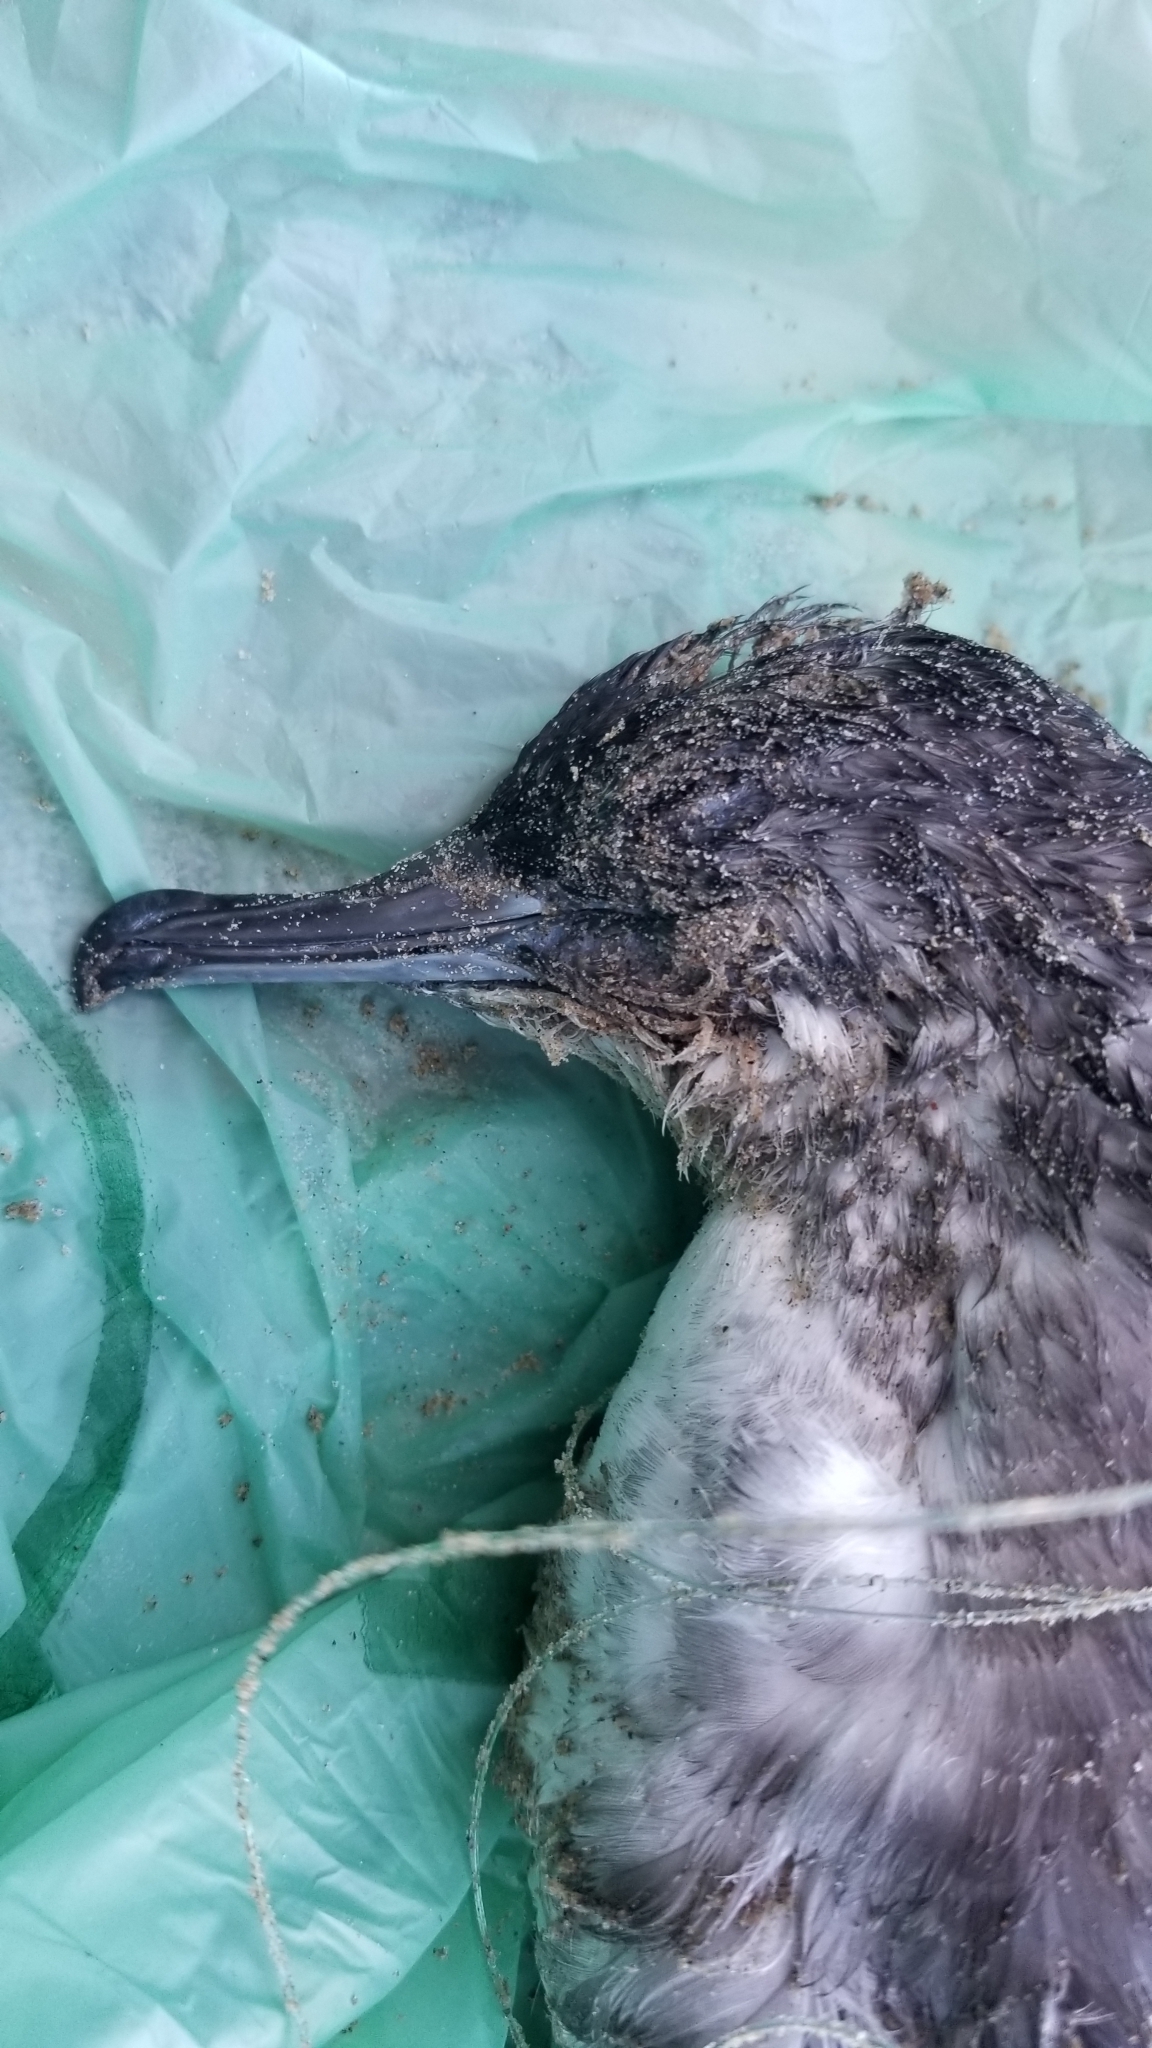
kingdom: Animalia
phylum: Chordata
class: Aves
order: Procellariiformes
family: Procellariidae
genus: Puffinus
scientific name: Puffinus opisthomelas
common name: Black-vented shearwater
